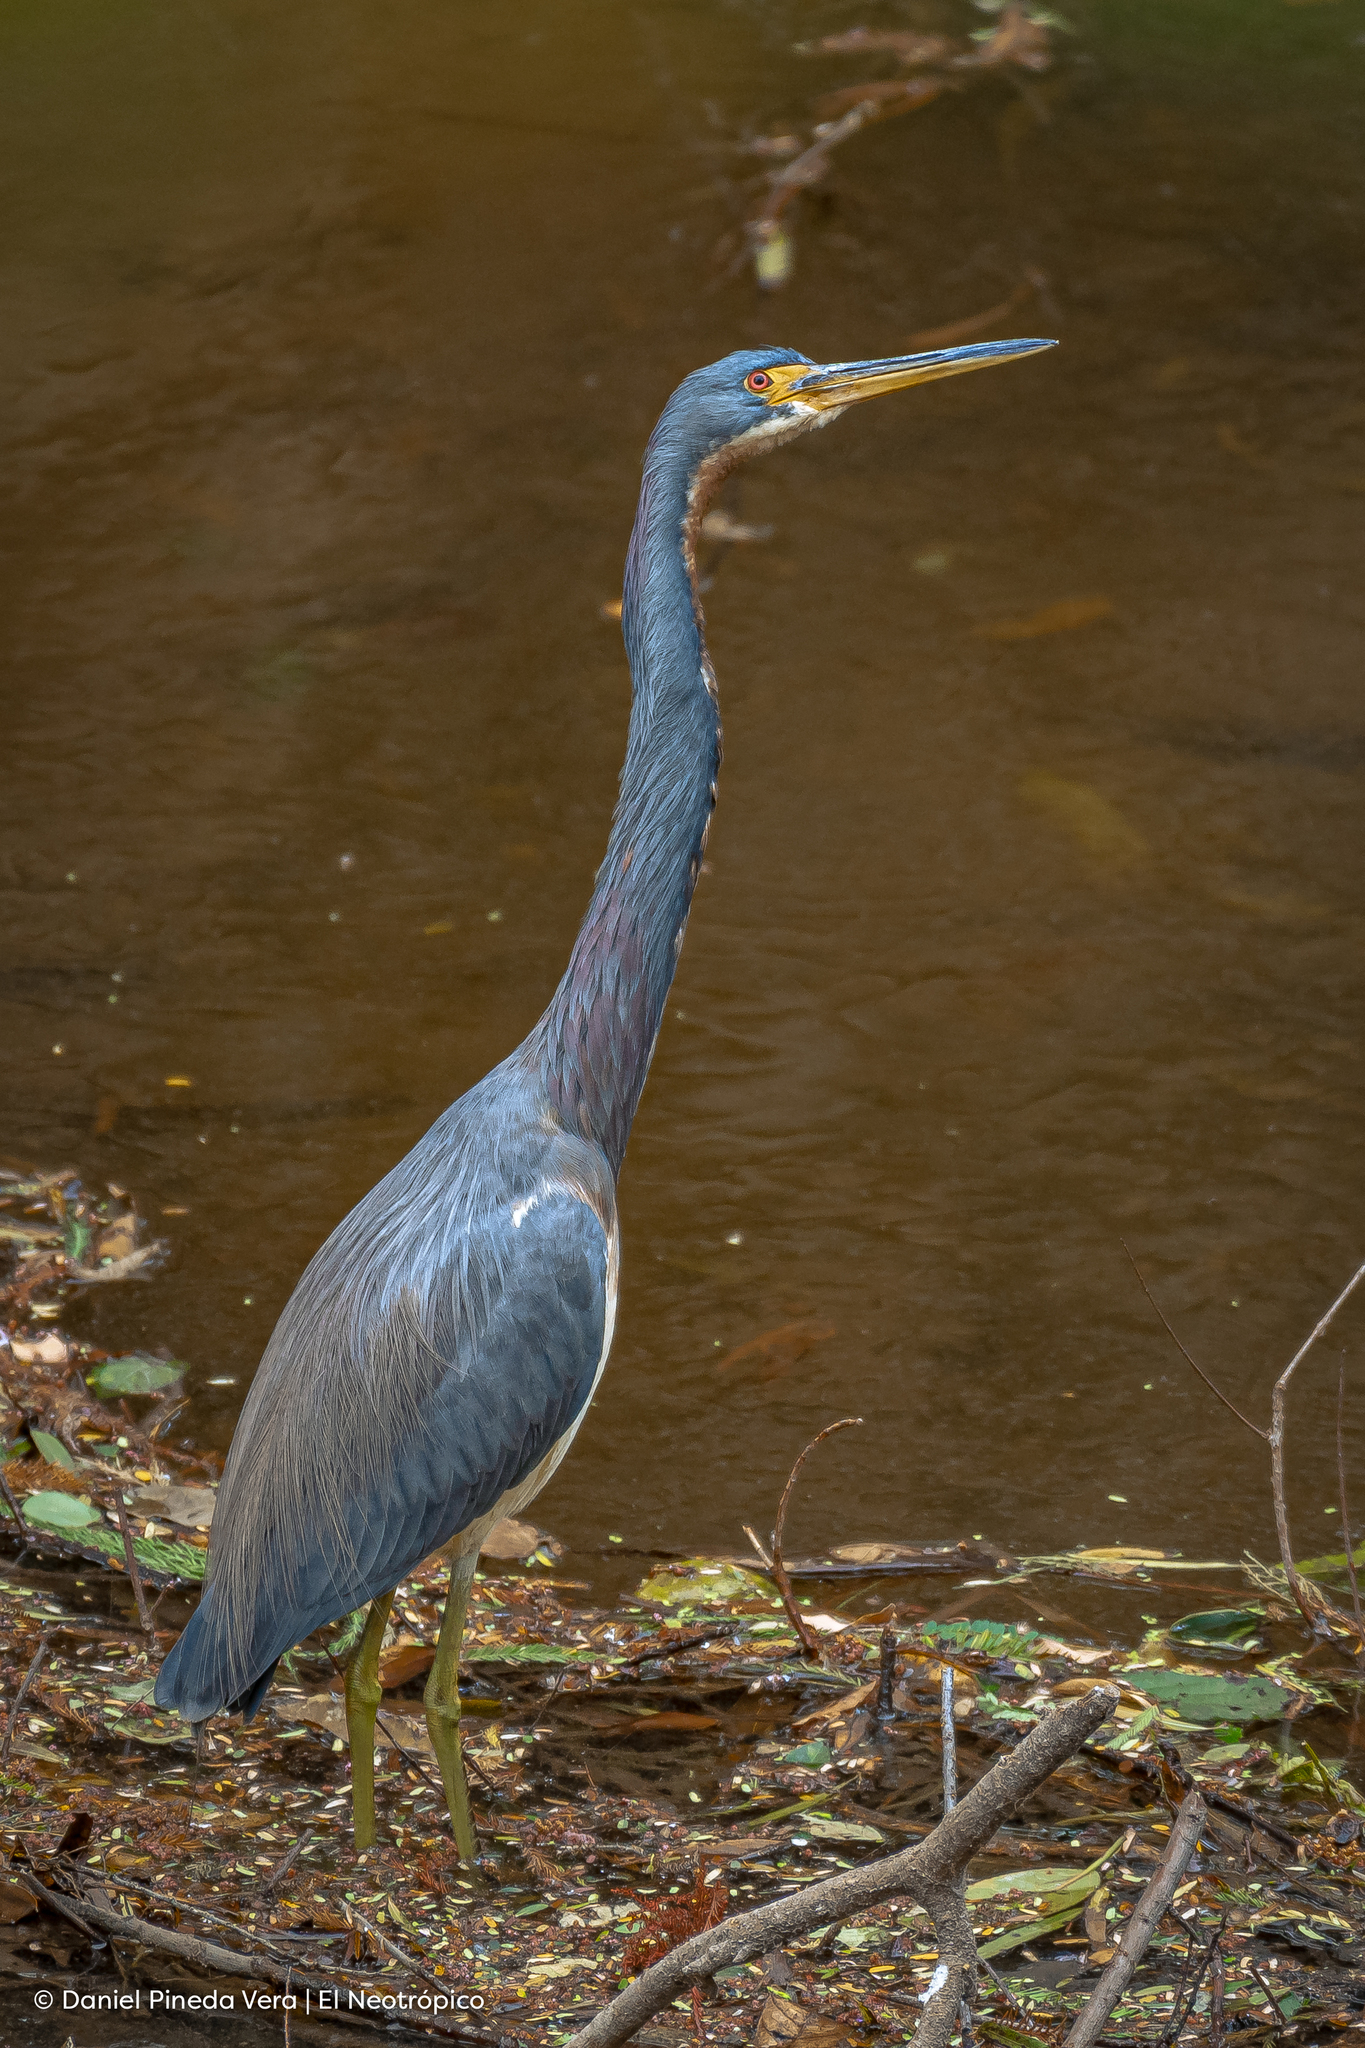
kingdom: Animalia
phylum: Chordata
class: Aves
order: Pelecaniformes
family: Ardeidae
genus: Egretta
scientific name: Egretta tricolor
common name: Tricolored heron
